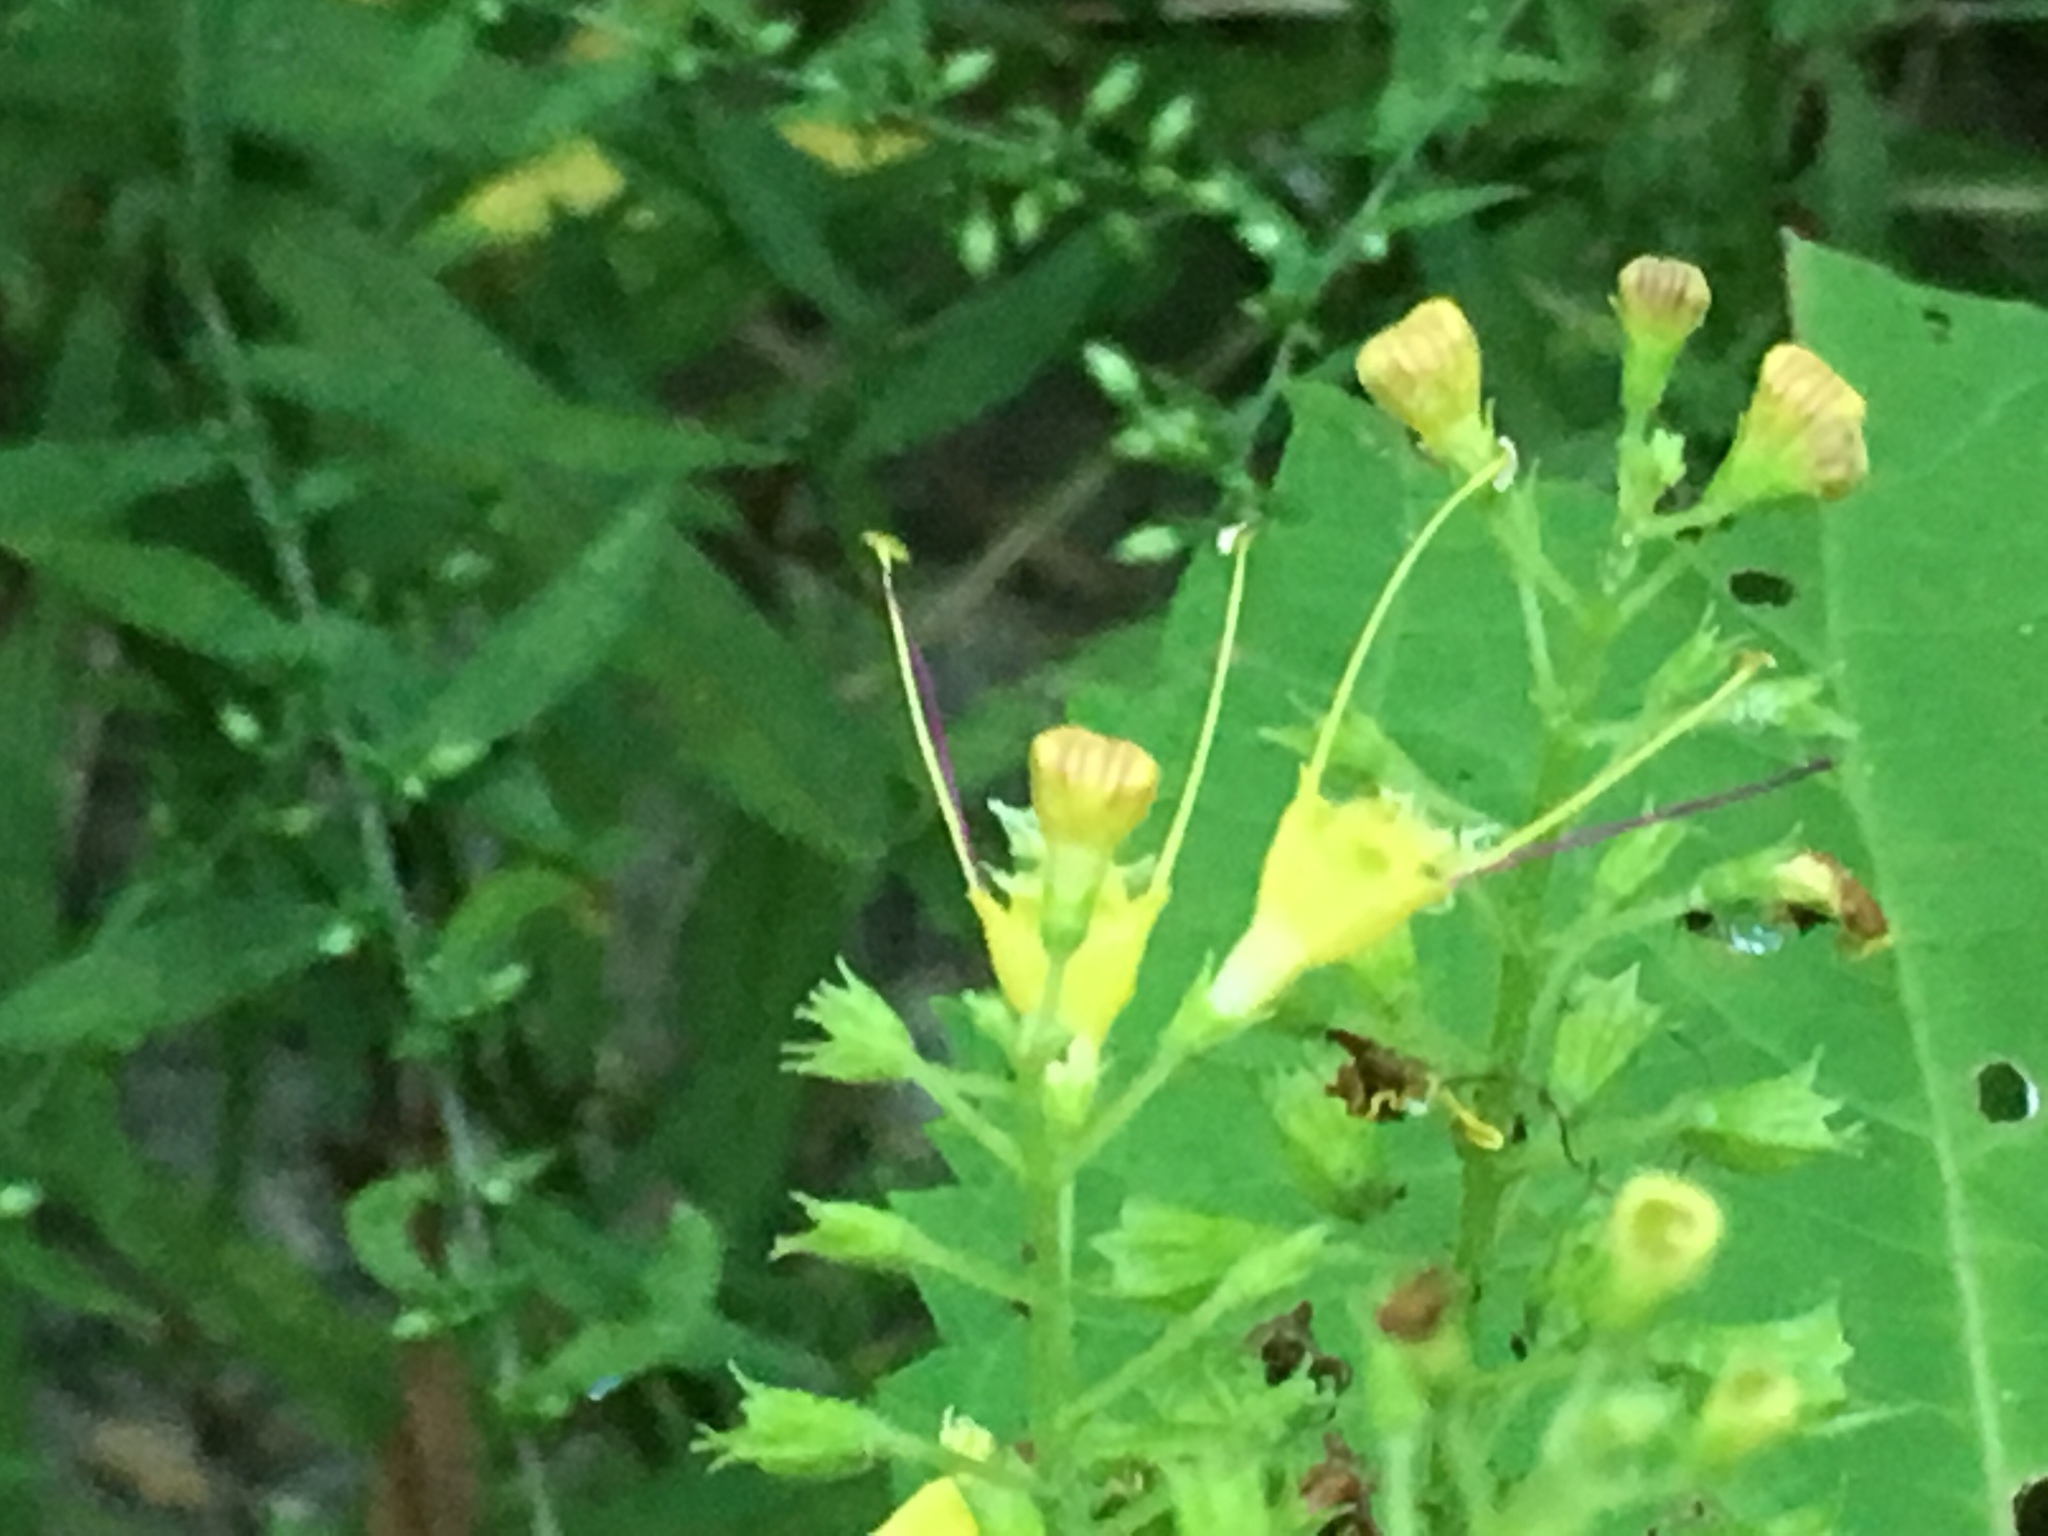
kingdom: Plantae
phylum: Tracheophyta
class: Magnoliopsida
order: Lamiales
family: Lamiaceae
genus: Collinsonia
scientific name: Collinsonia canadensis
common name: Northern horsebalm
